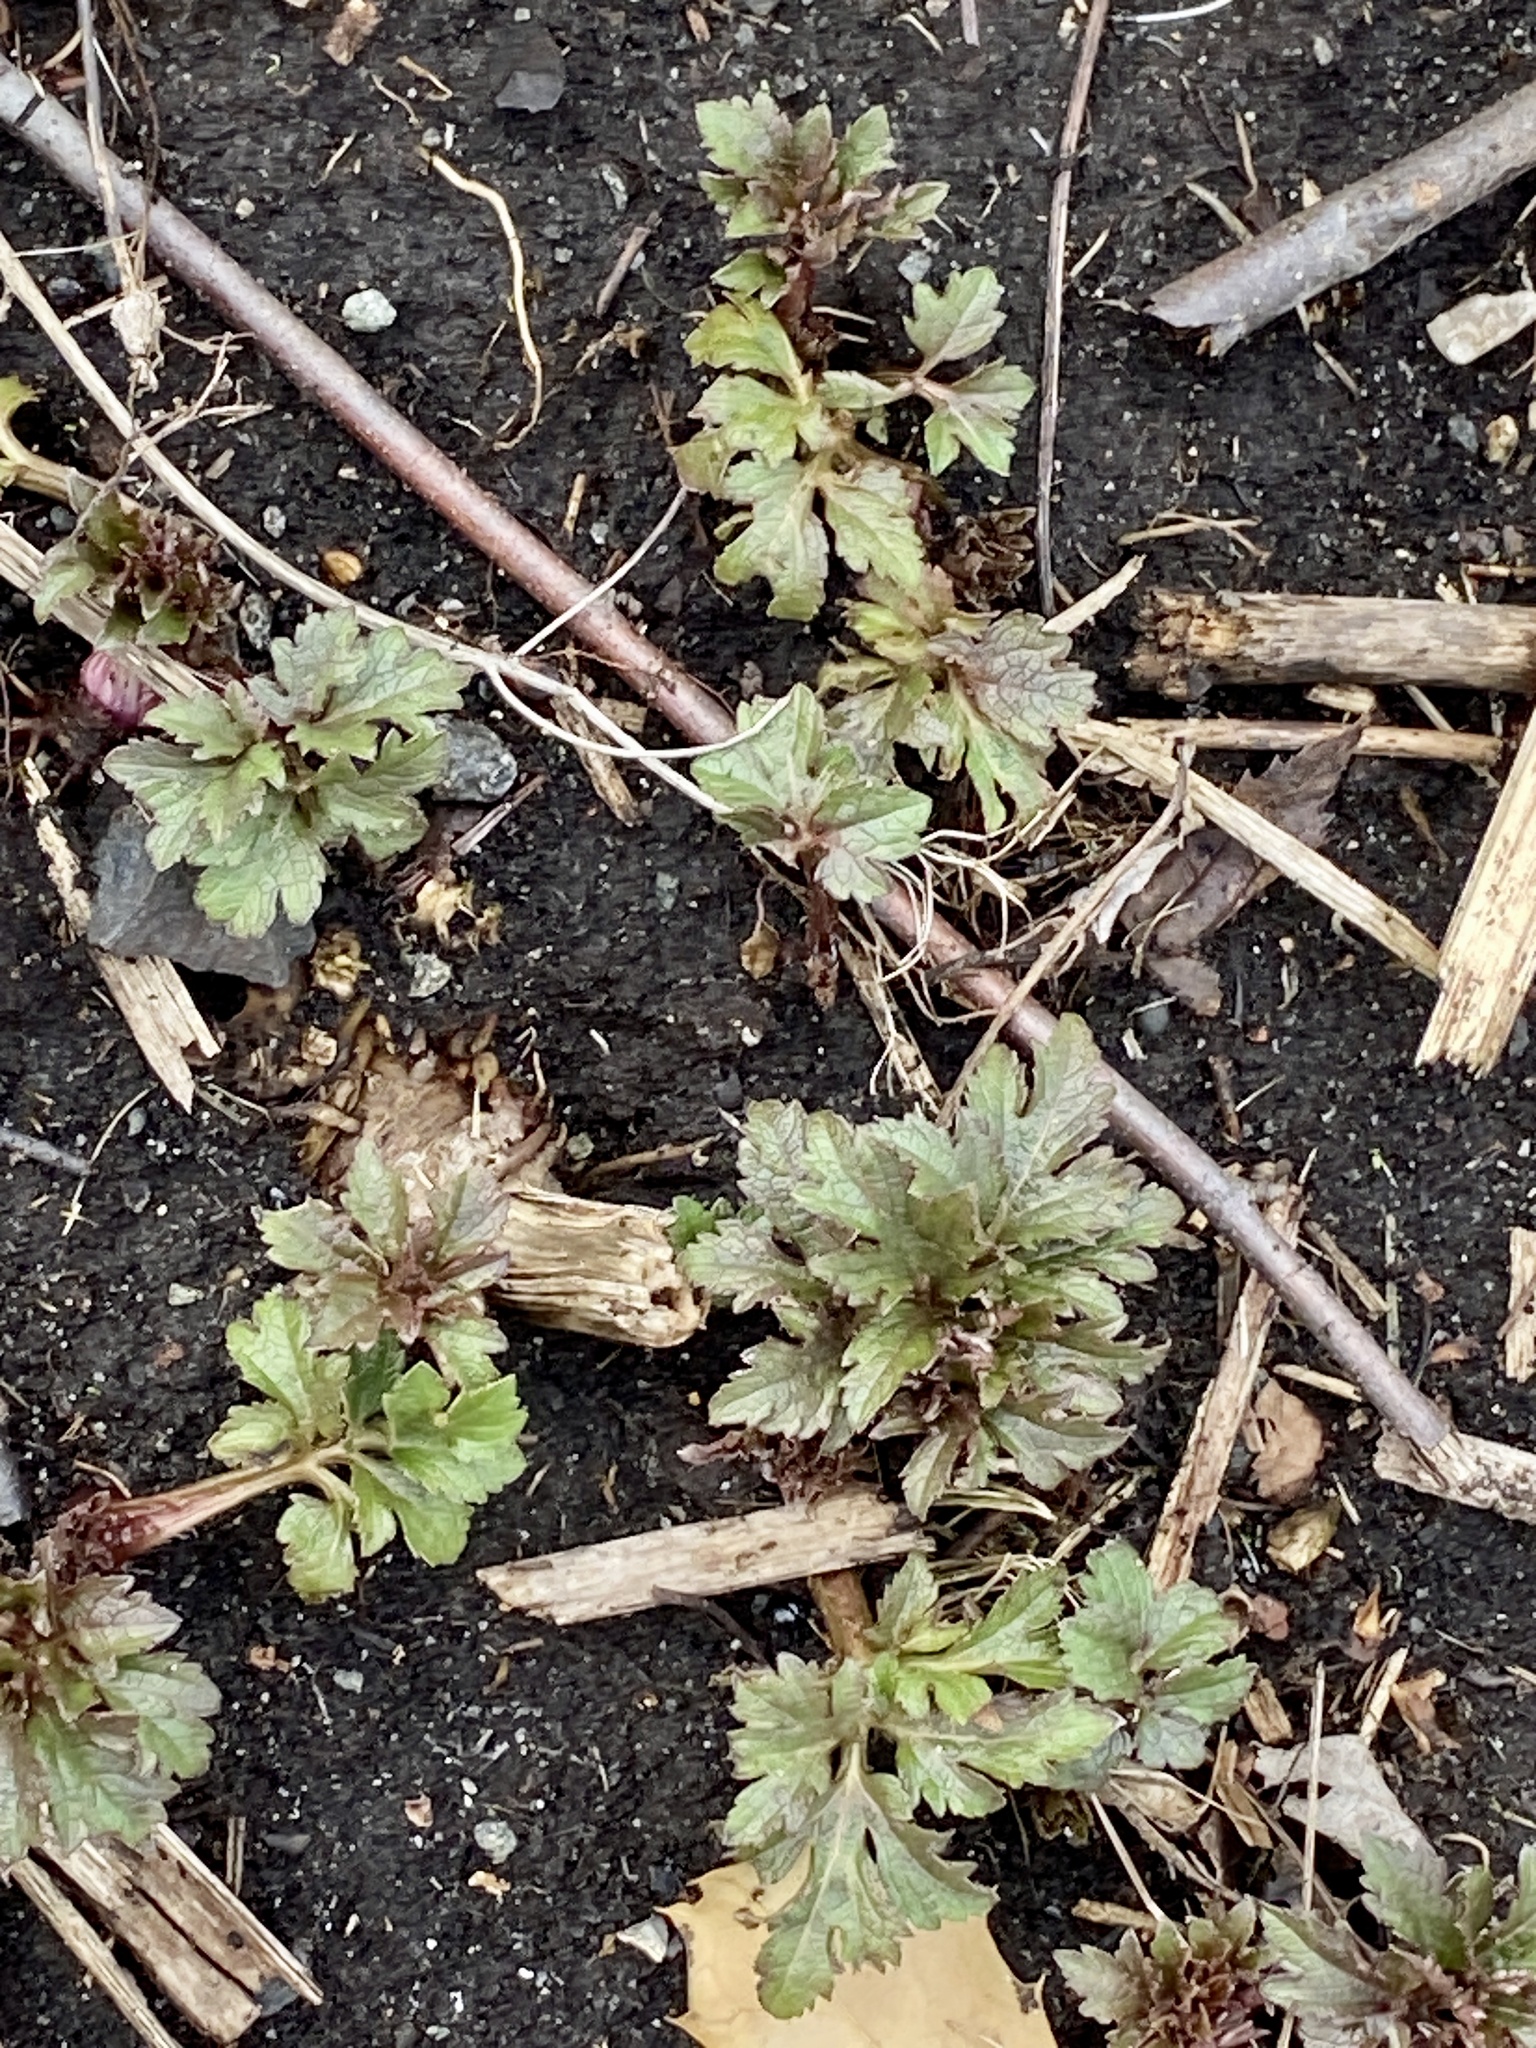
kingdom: Plantae
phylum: Tracheophyta
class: Magnoliopsida
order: Asterales
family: Asteraceae
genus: Rudbeckia
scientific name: Rudbeckia laciniata
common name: Coneflower
